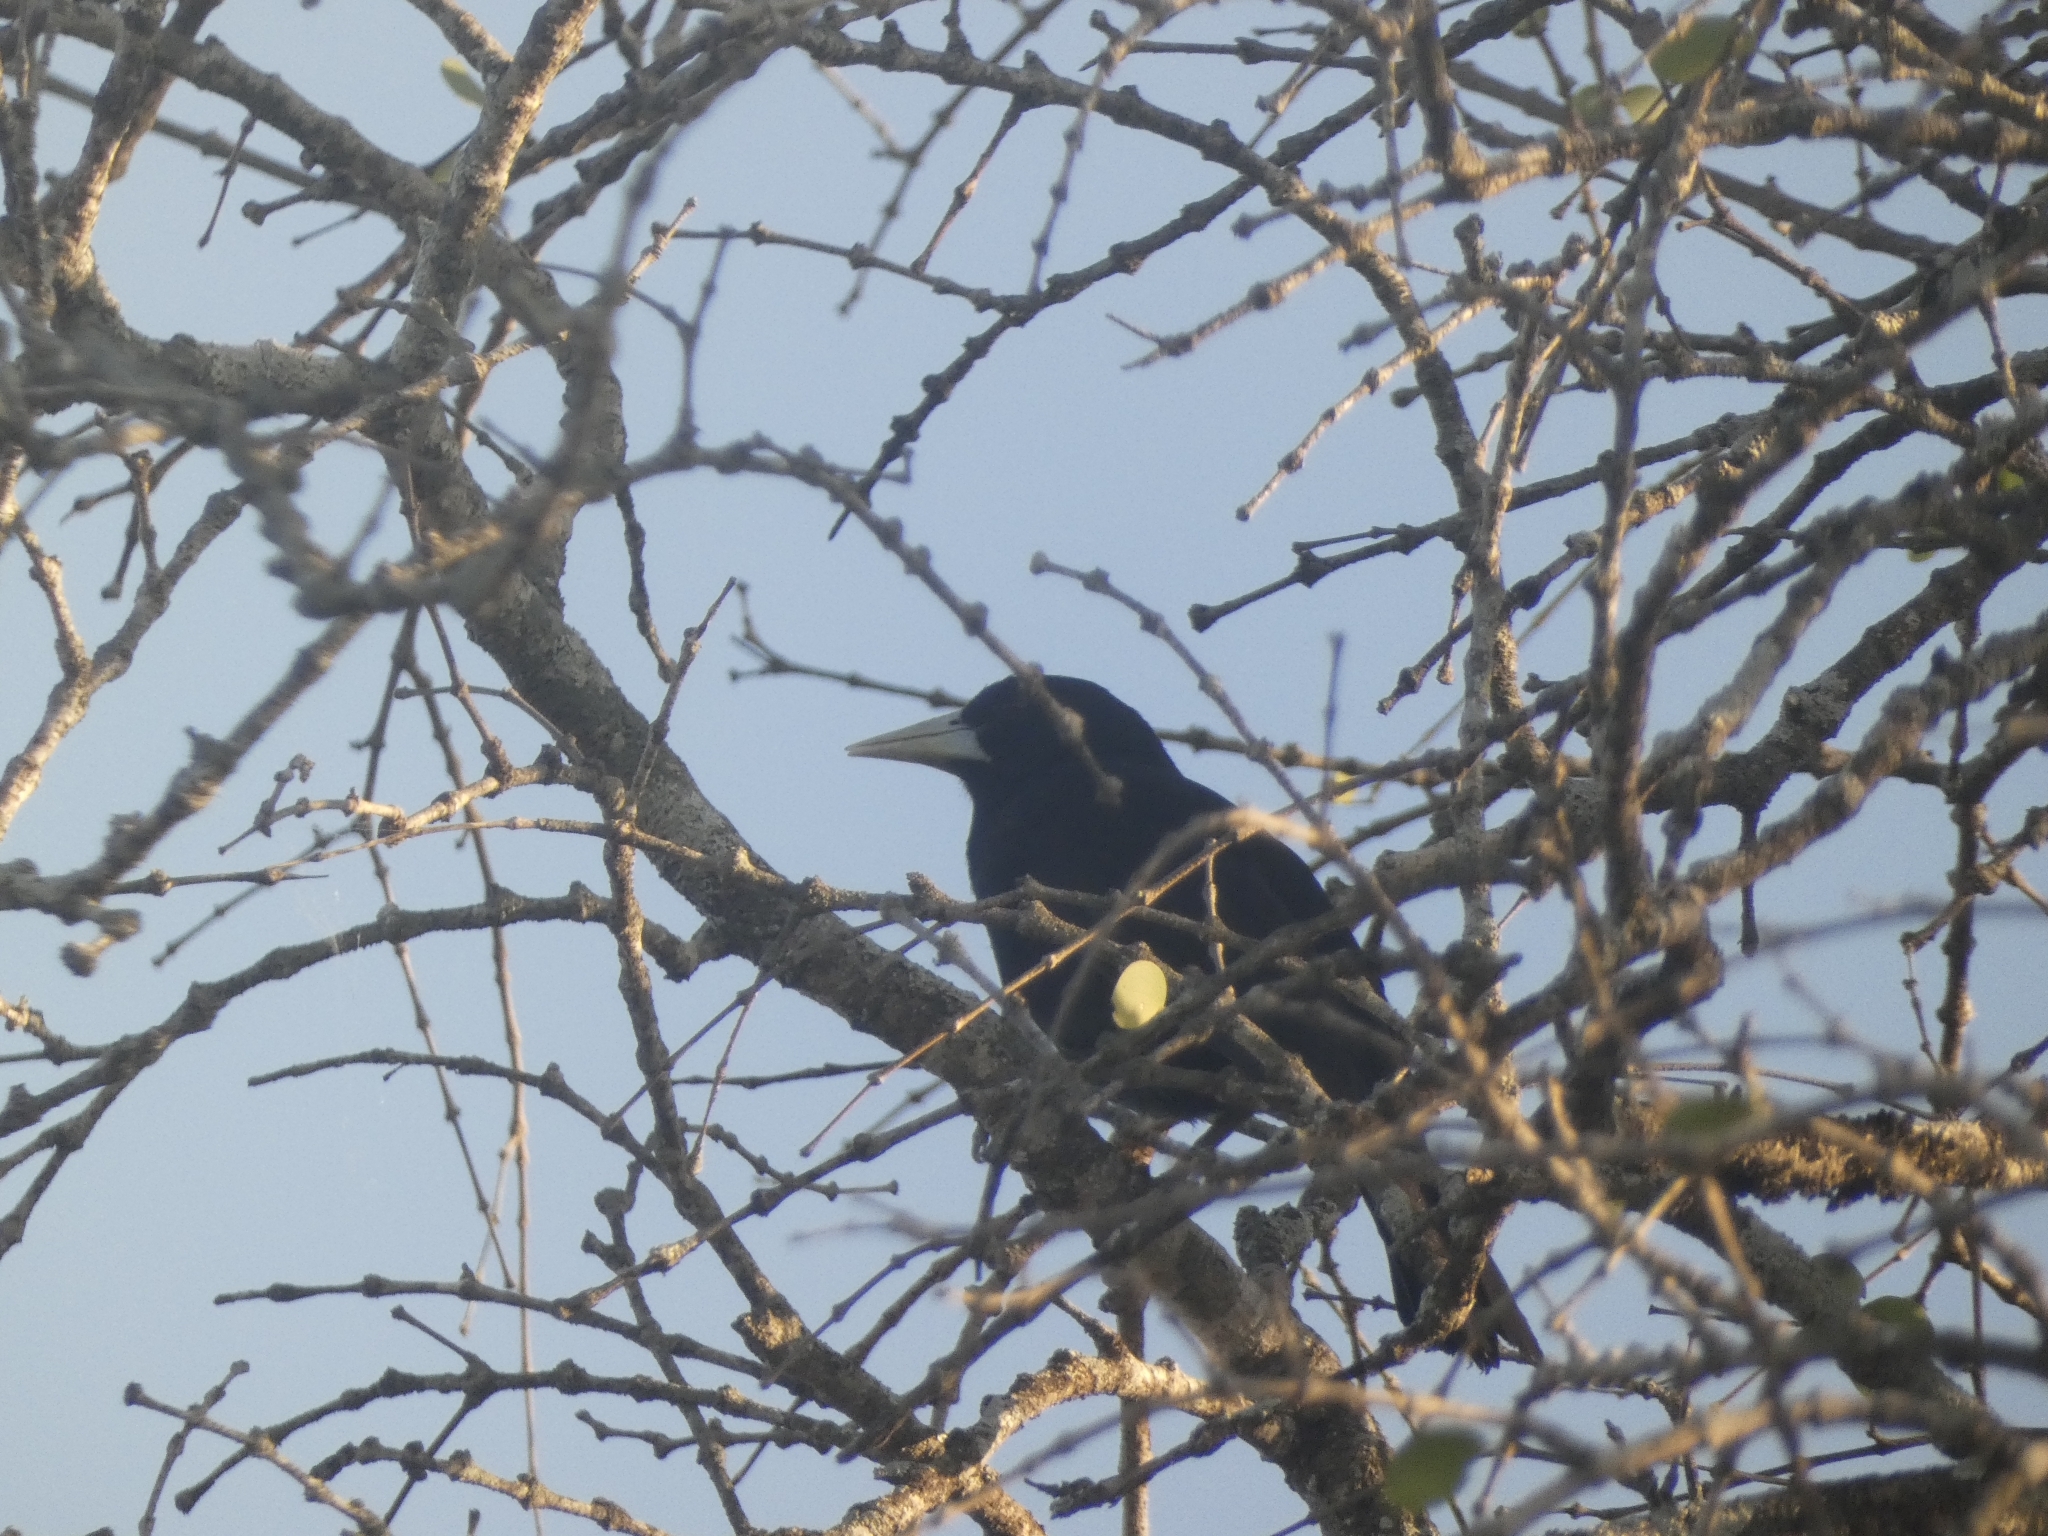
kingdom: Animalia
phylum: Chordata
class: Aves
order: Passeriformes
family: Icteridae
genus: Cacicus
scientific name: Cacicus solitarius
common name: Solitary cacique
